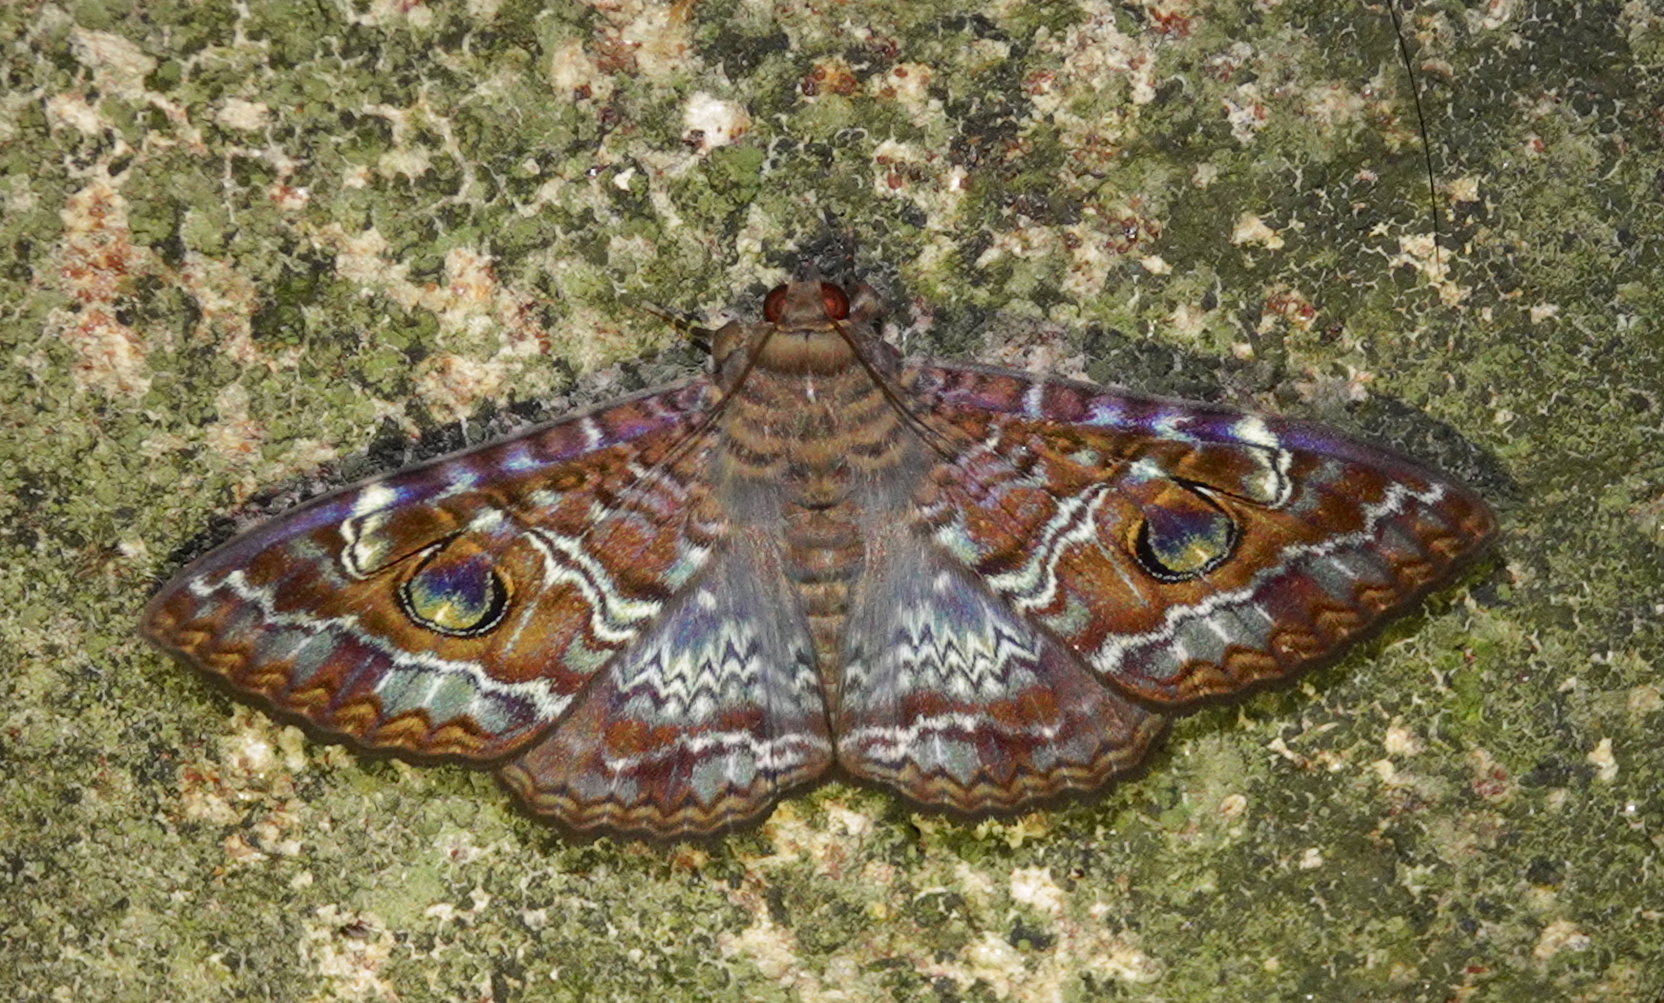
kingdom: Animalia
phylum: Arthropoda
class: Insecta
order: Lepidoptera
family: Erebidae
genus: Speiredonia
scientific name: Speiredonia obscura
